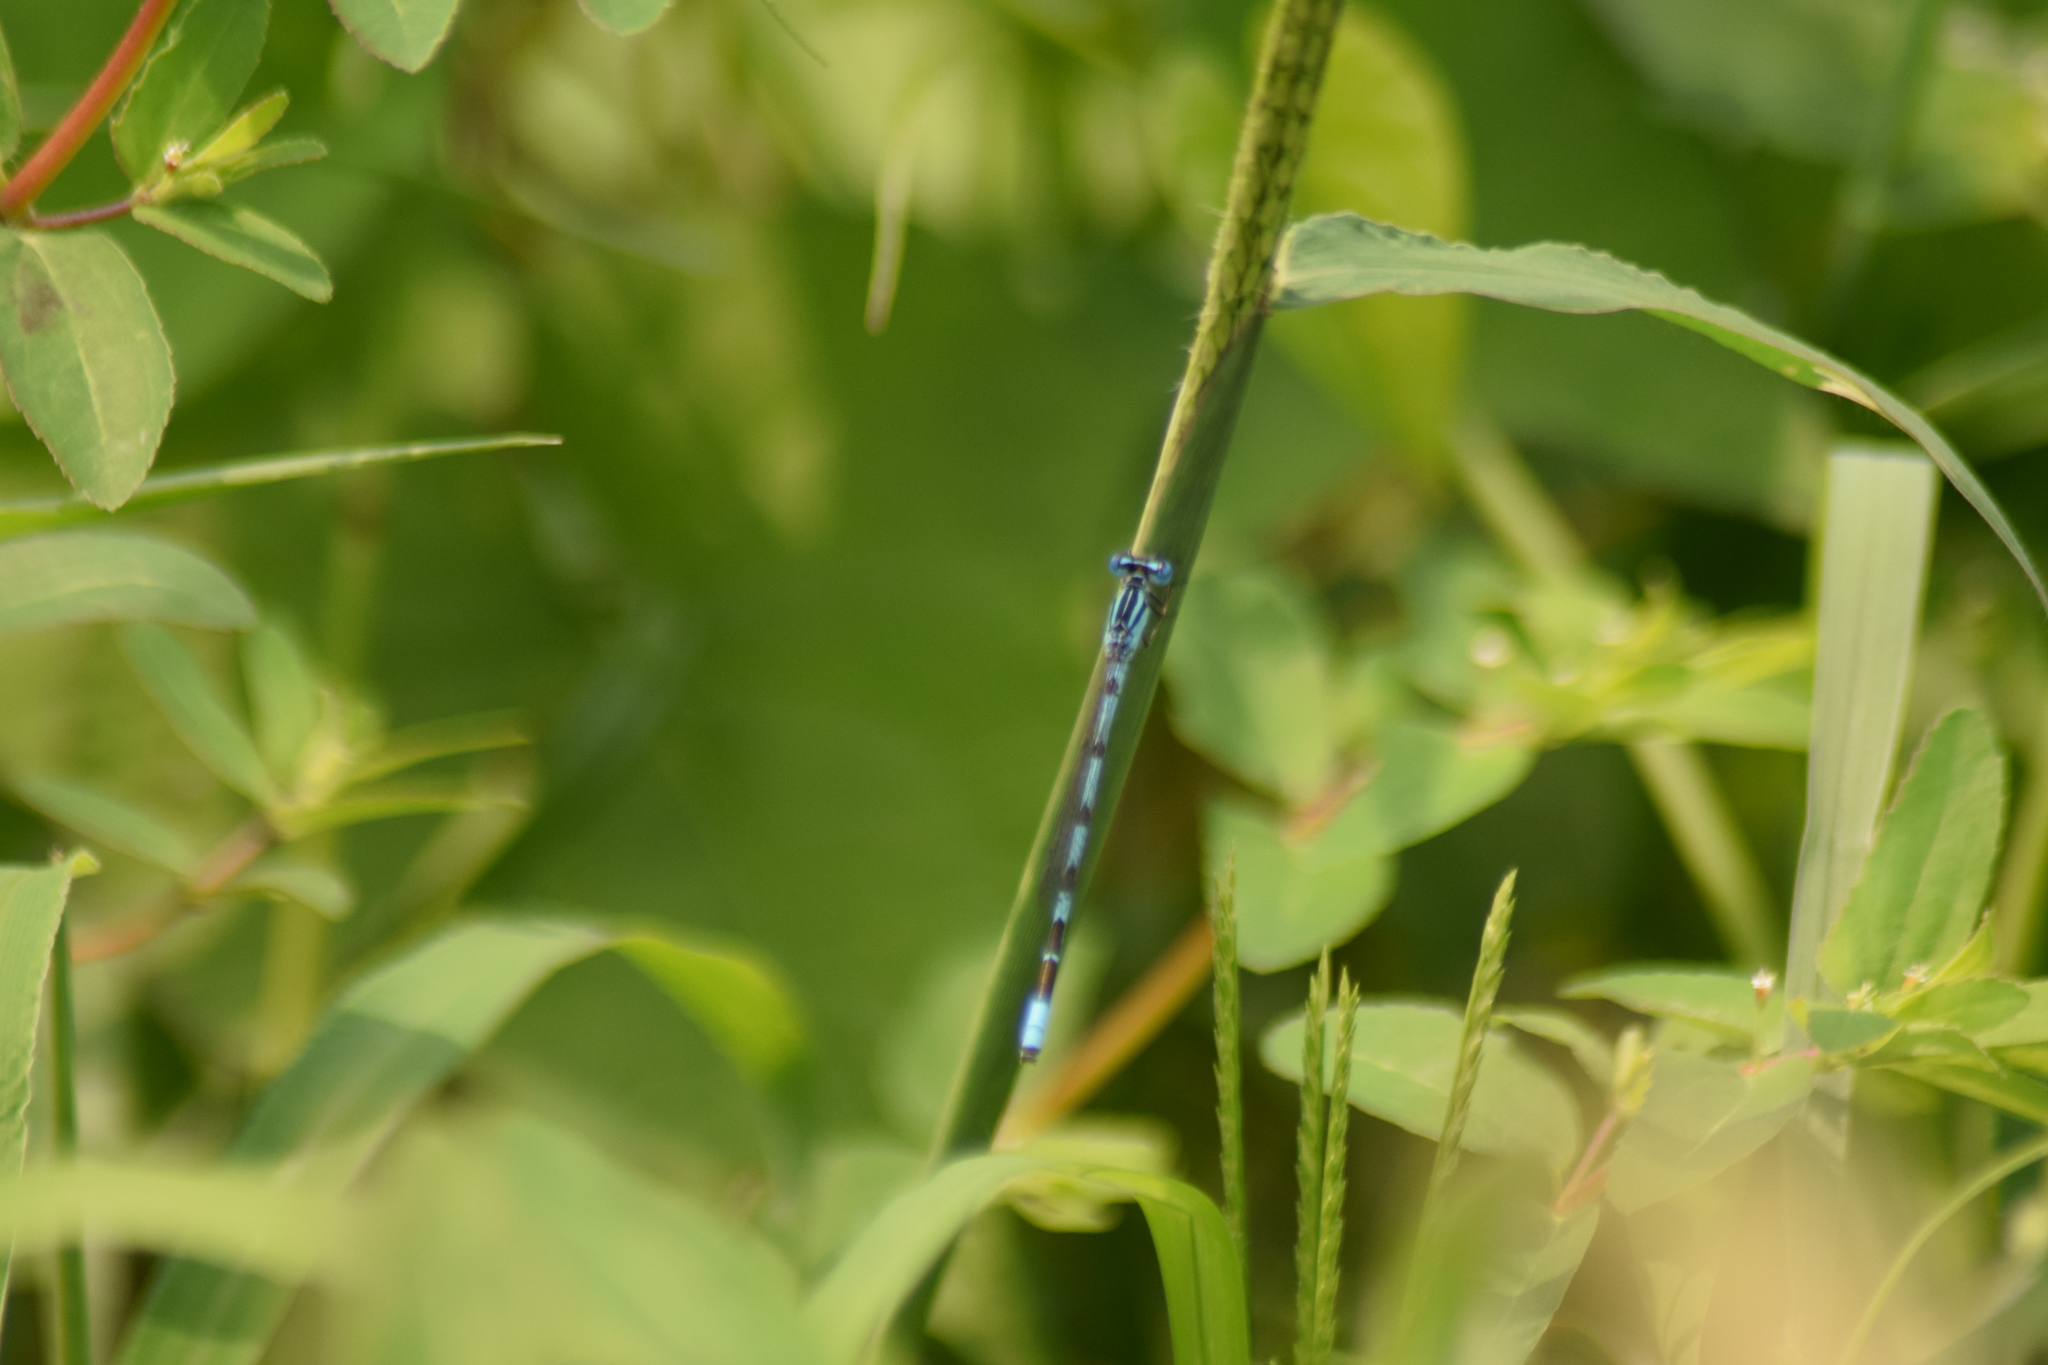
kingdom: Animalia
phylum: Arthropoda
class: Insecta
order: Odonata
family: Coenagrionidae
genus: Enallagma
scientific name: Enallagma durum
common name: Big bluet
